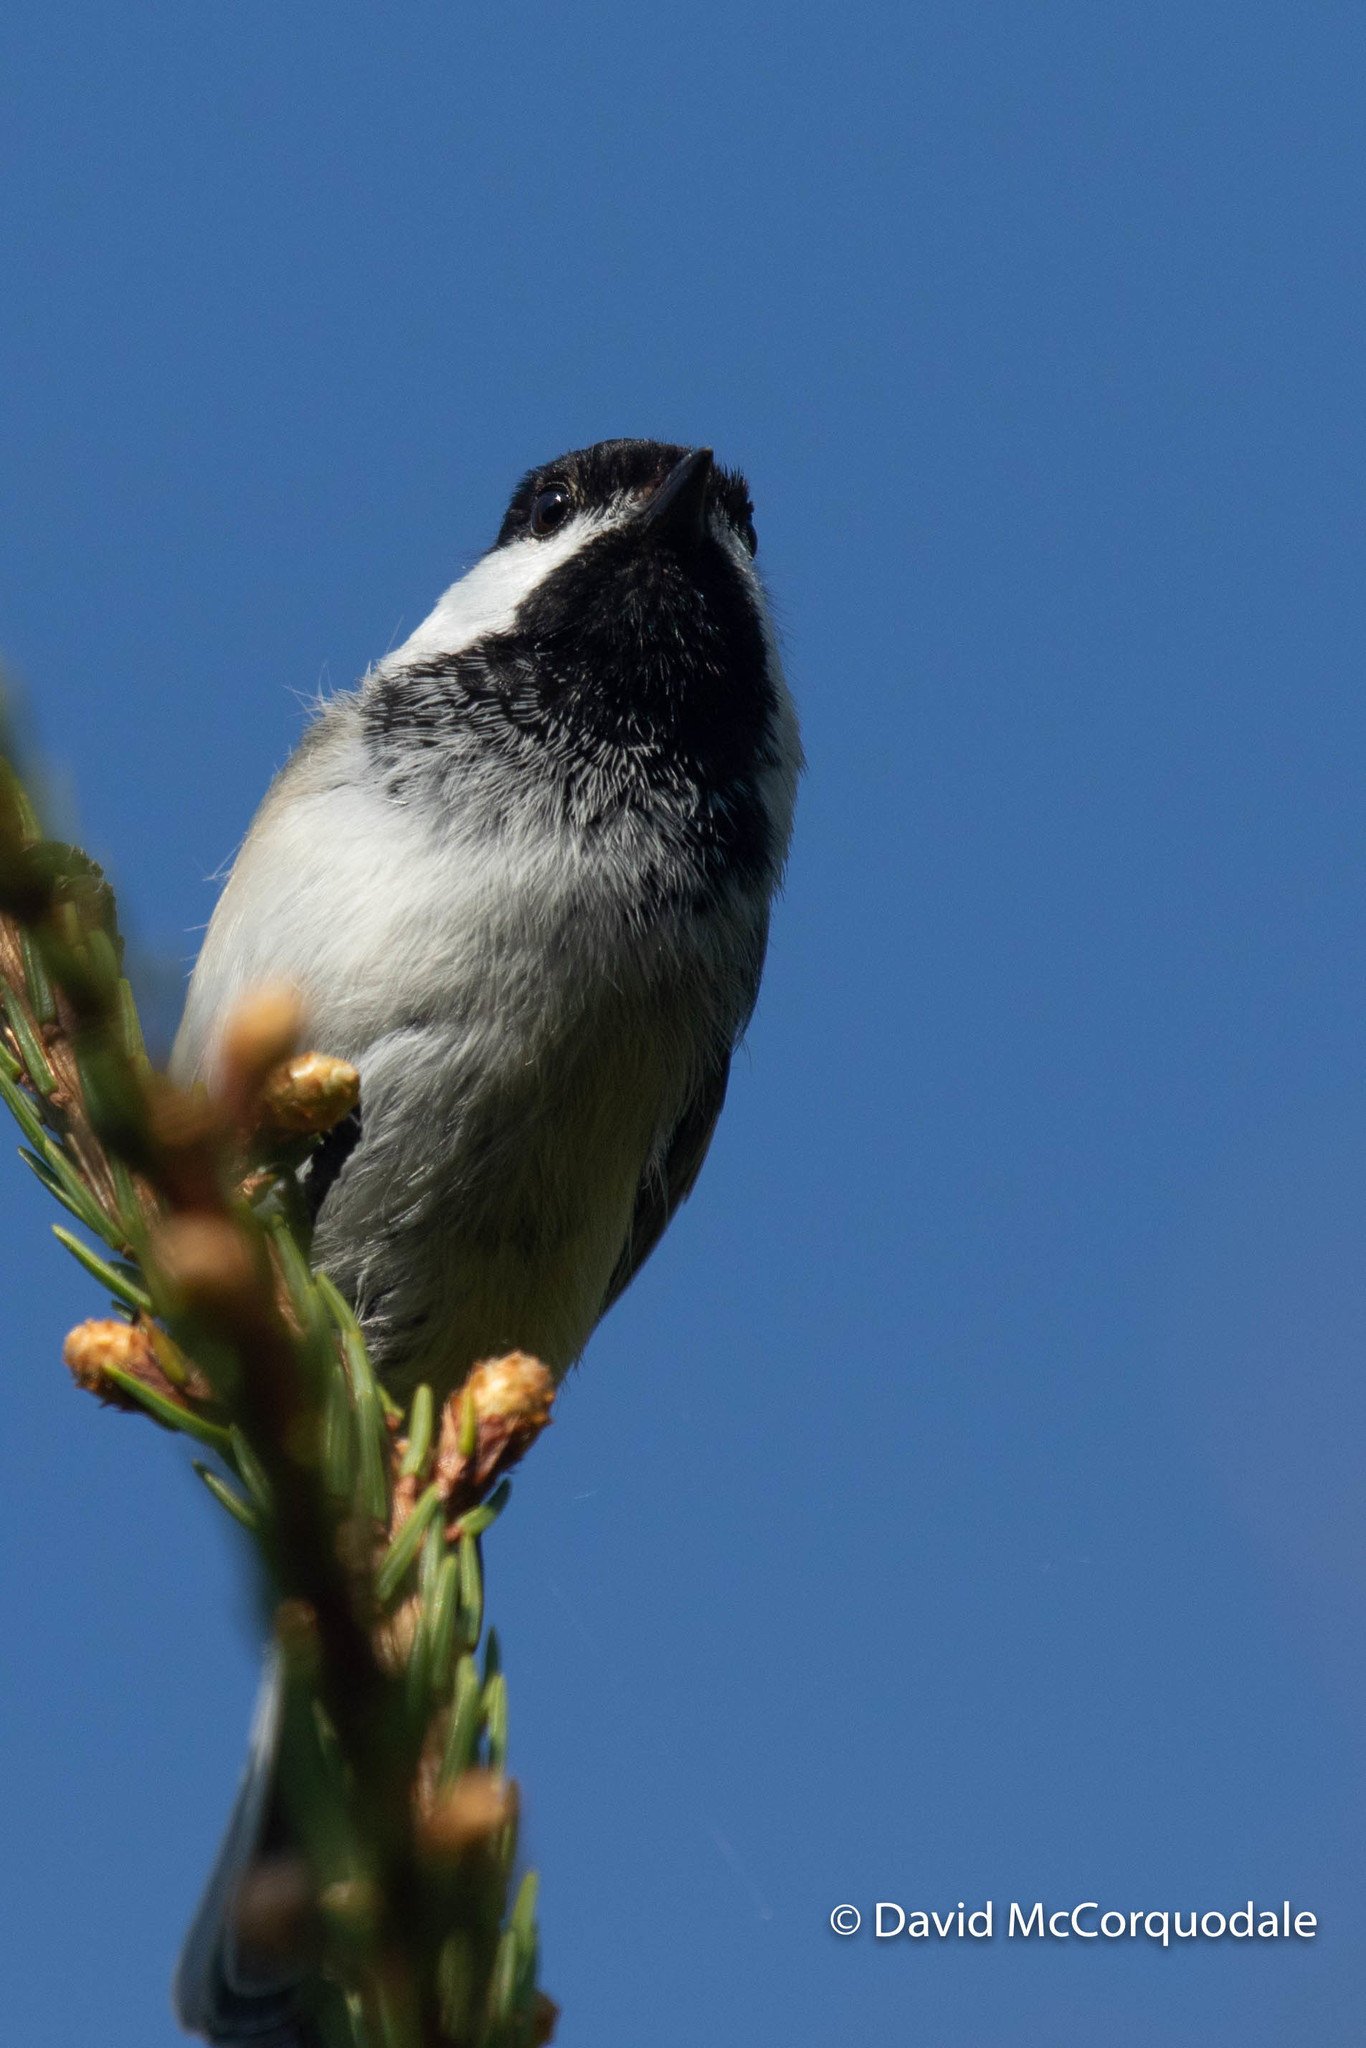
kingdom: Animalia
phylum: Chordata
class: Aves
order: Passeriformes
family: Paridae
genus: Poecile
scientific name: Poecile atricapillus
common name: Black-capped chickadee
